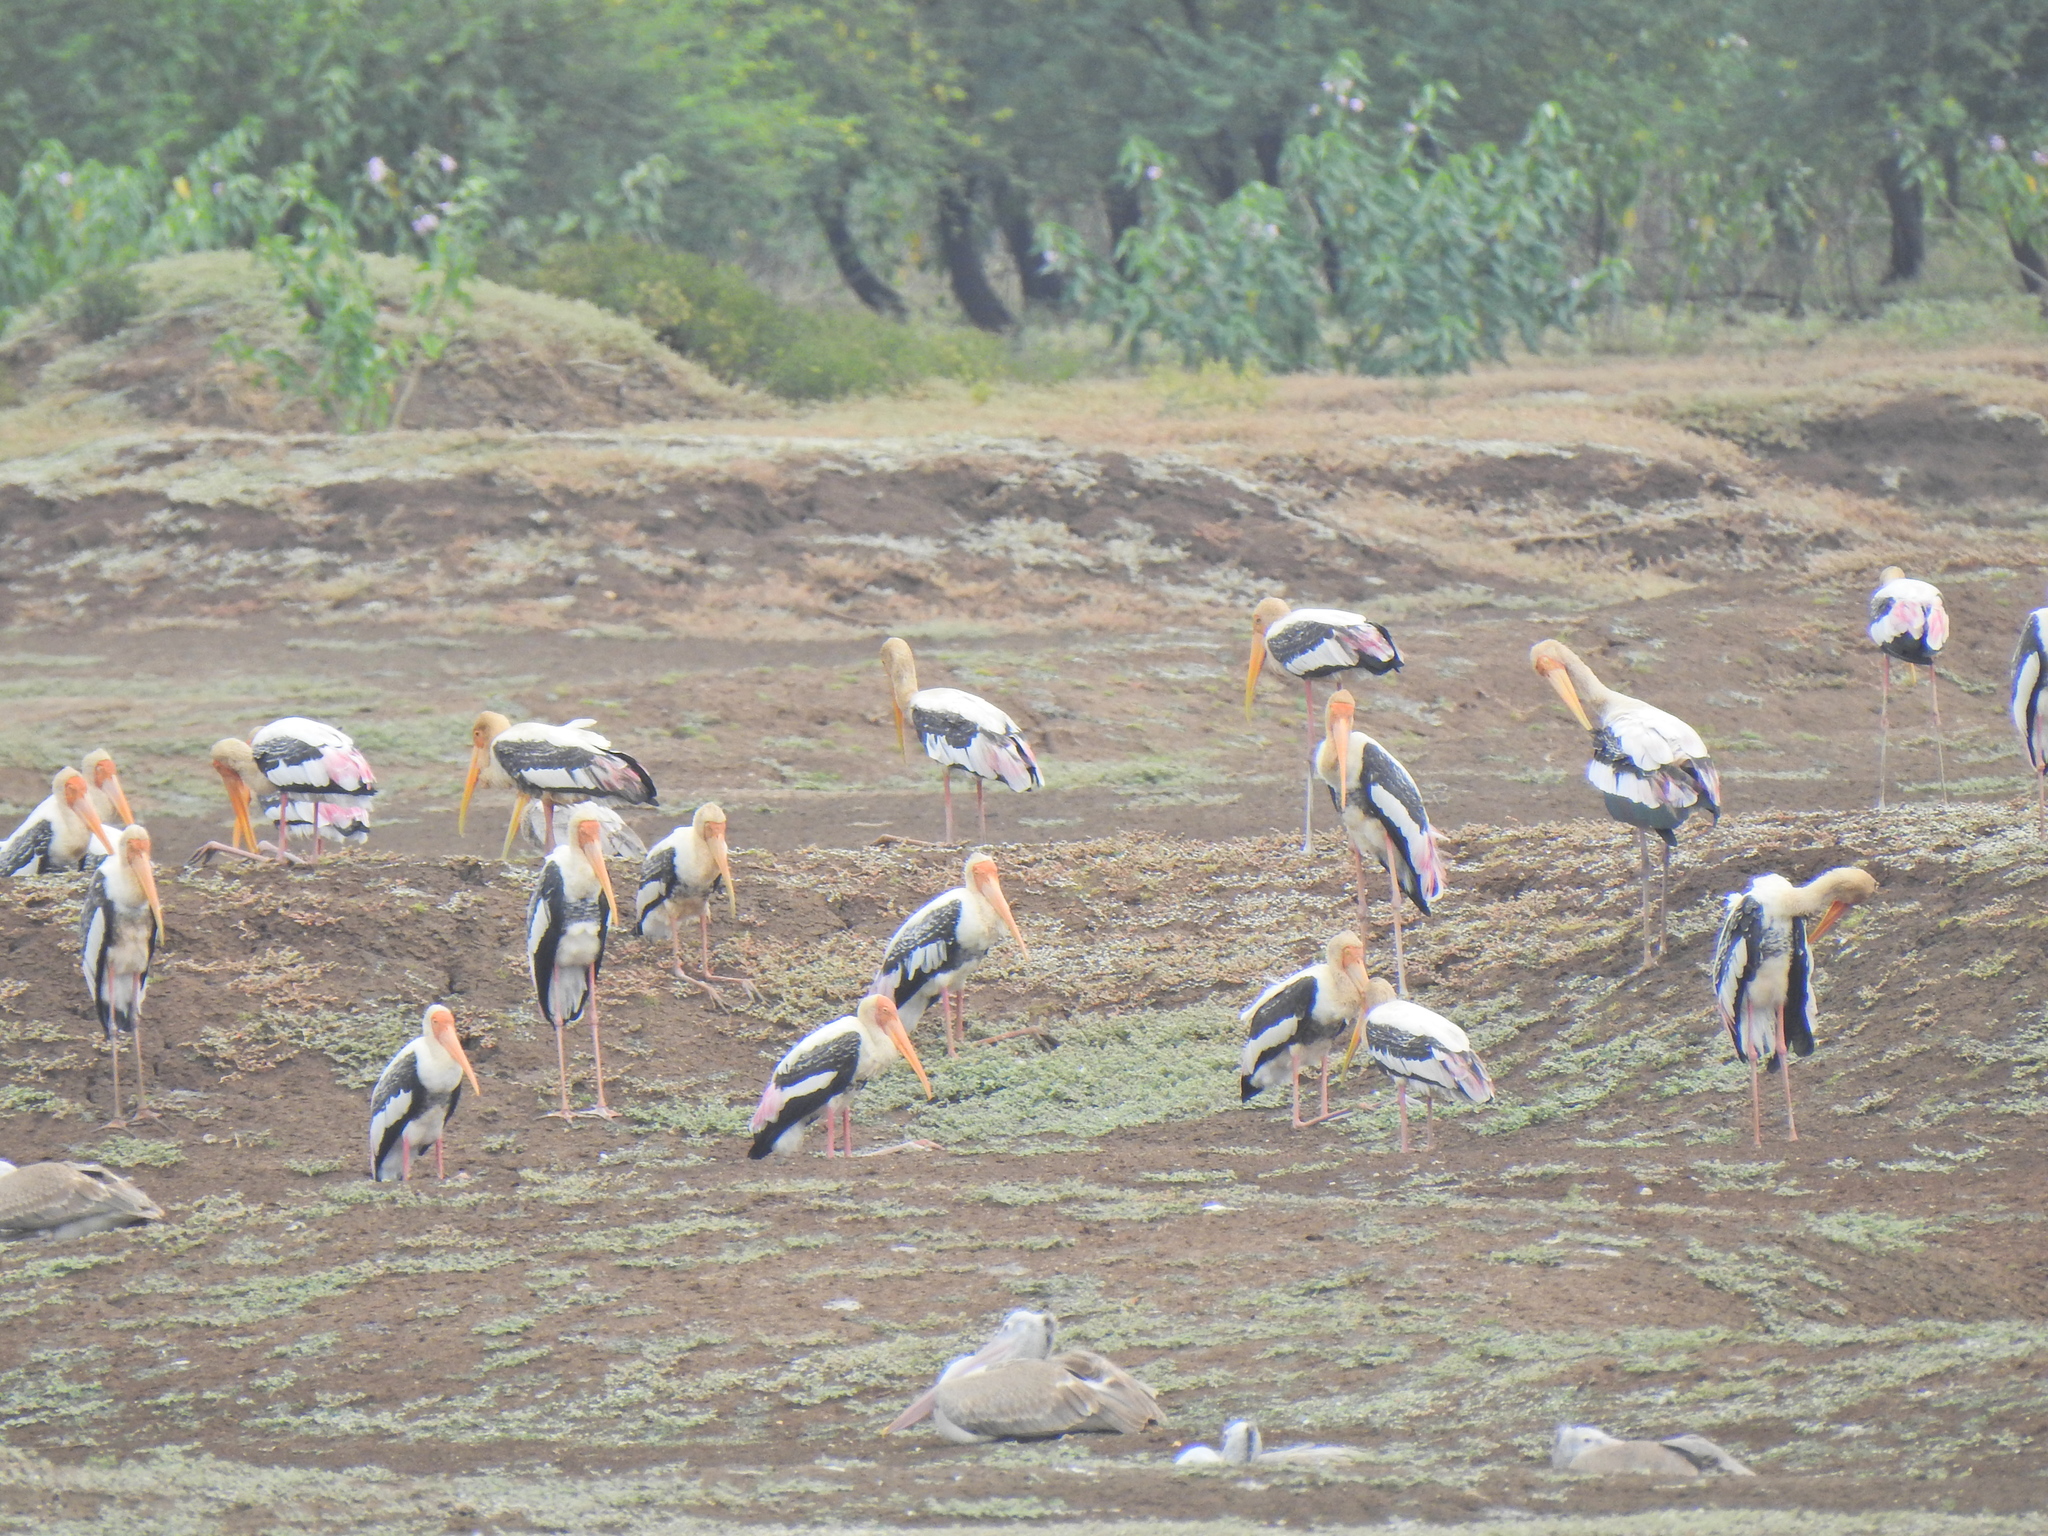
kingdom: Animalia
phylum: Chordata
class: Aves
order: Ciconiiformes
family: Ciconiidae
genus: Mycteria
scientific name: Mycteria leucocephala
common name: Painted stork
